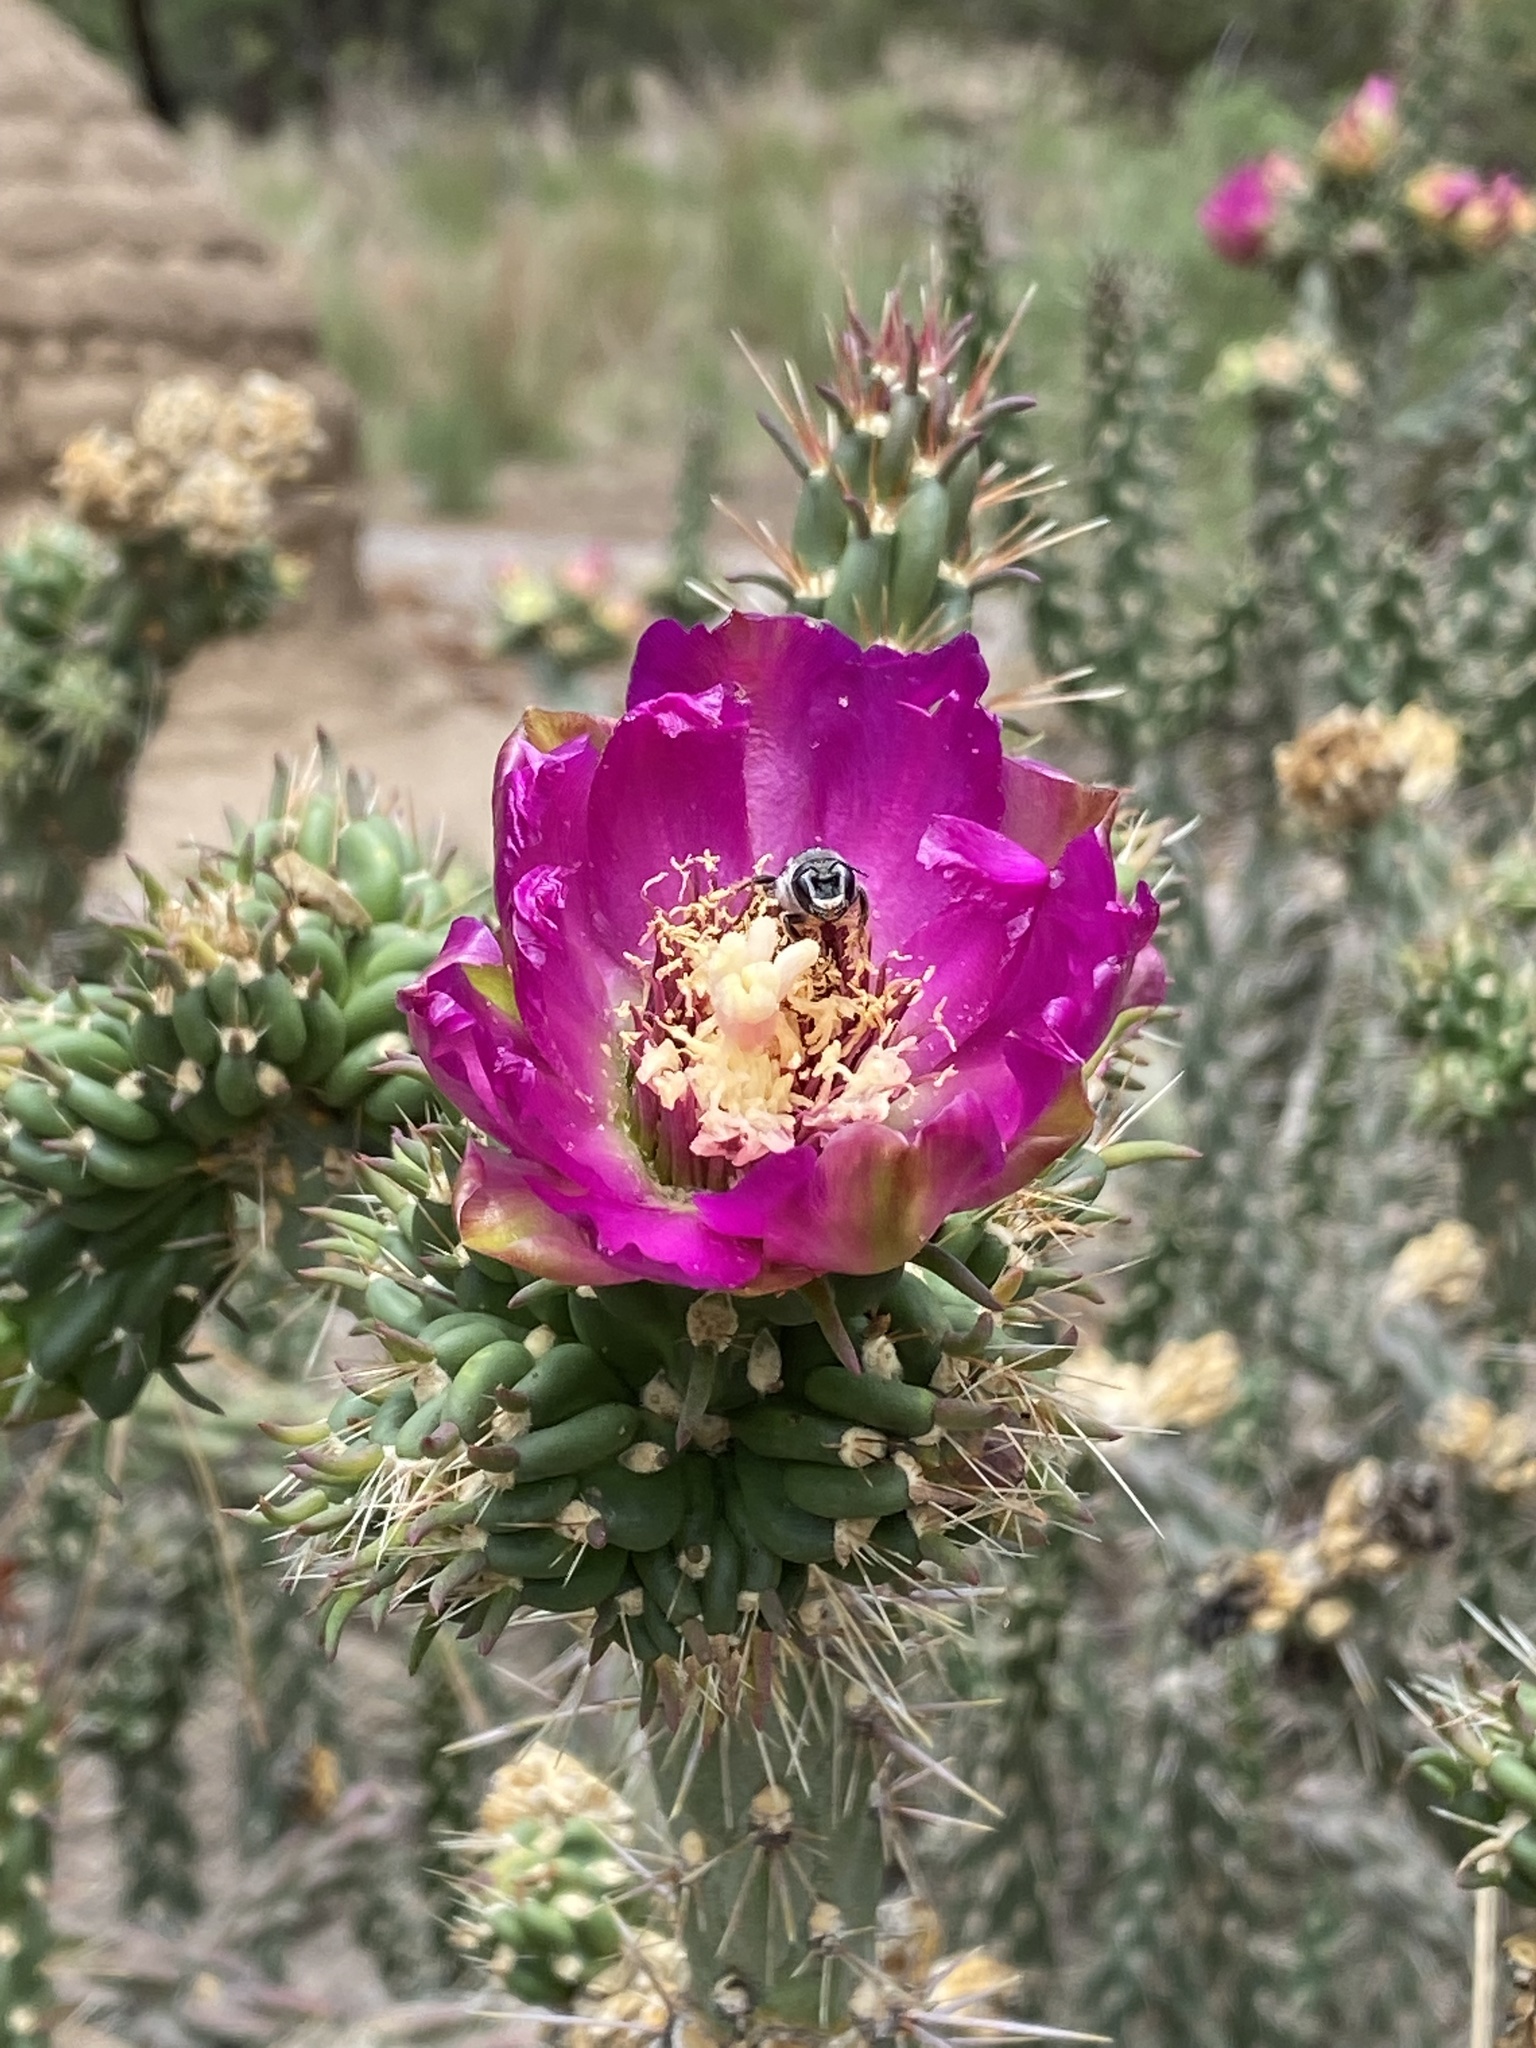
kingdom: Animalia
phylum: Arthropoda
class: Insecta
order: Hymenoptera
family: Megachilidae
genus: Lithurgopsis
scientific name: Lithurgopsis apicalis
